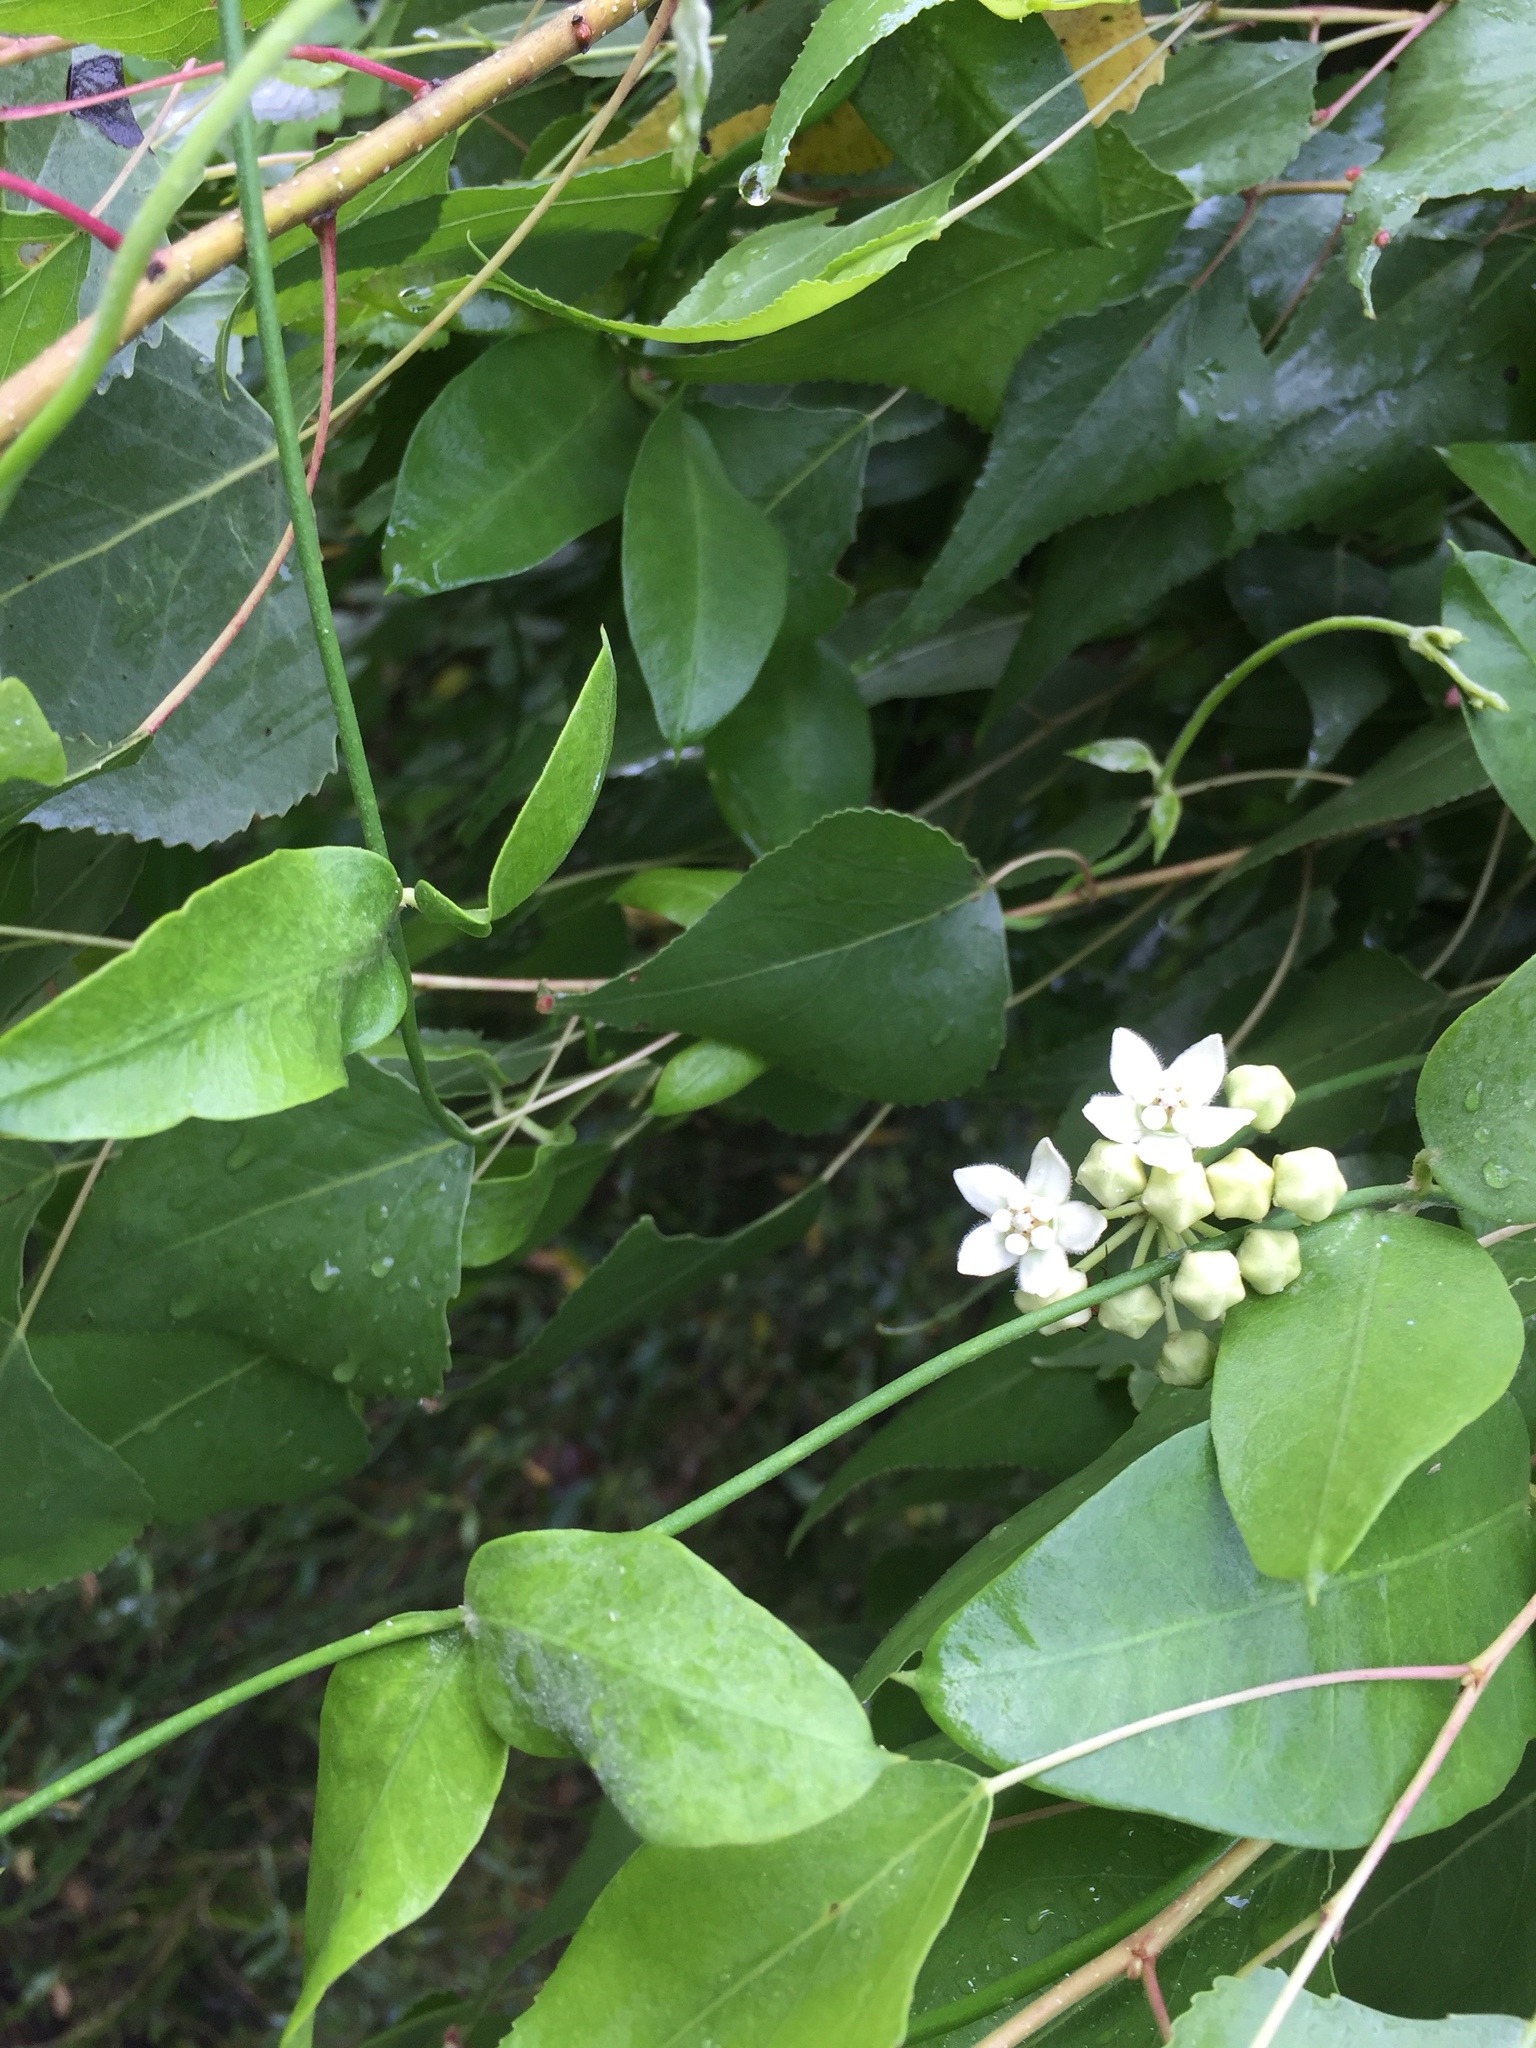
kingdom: Plantae
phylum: Tracheophyta
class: Magnoliopsida
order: Gentianales
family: Apocynaceae
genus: Funastrum
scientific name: Funastrum clausum
